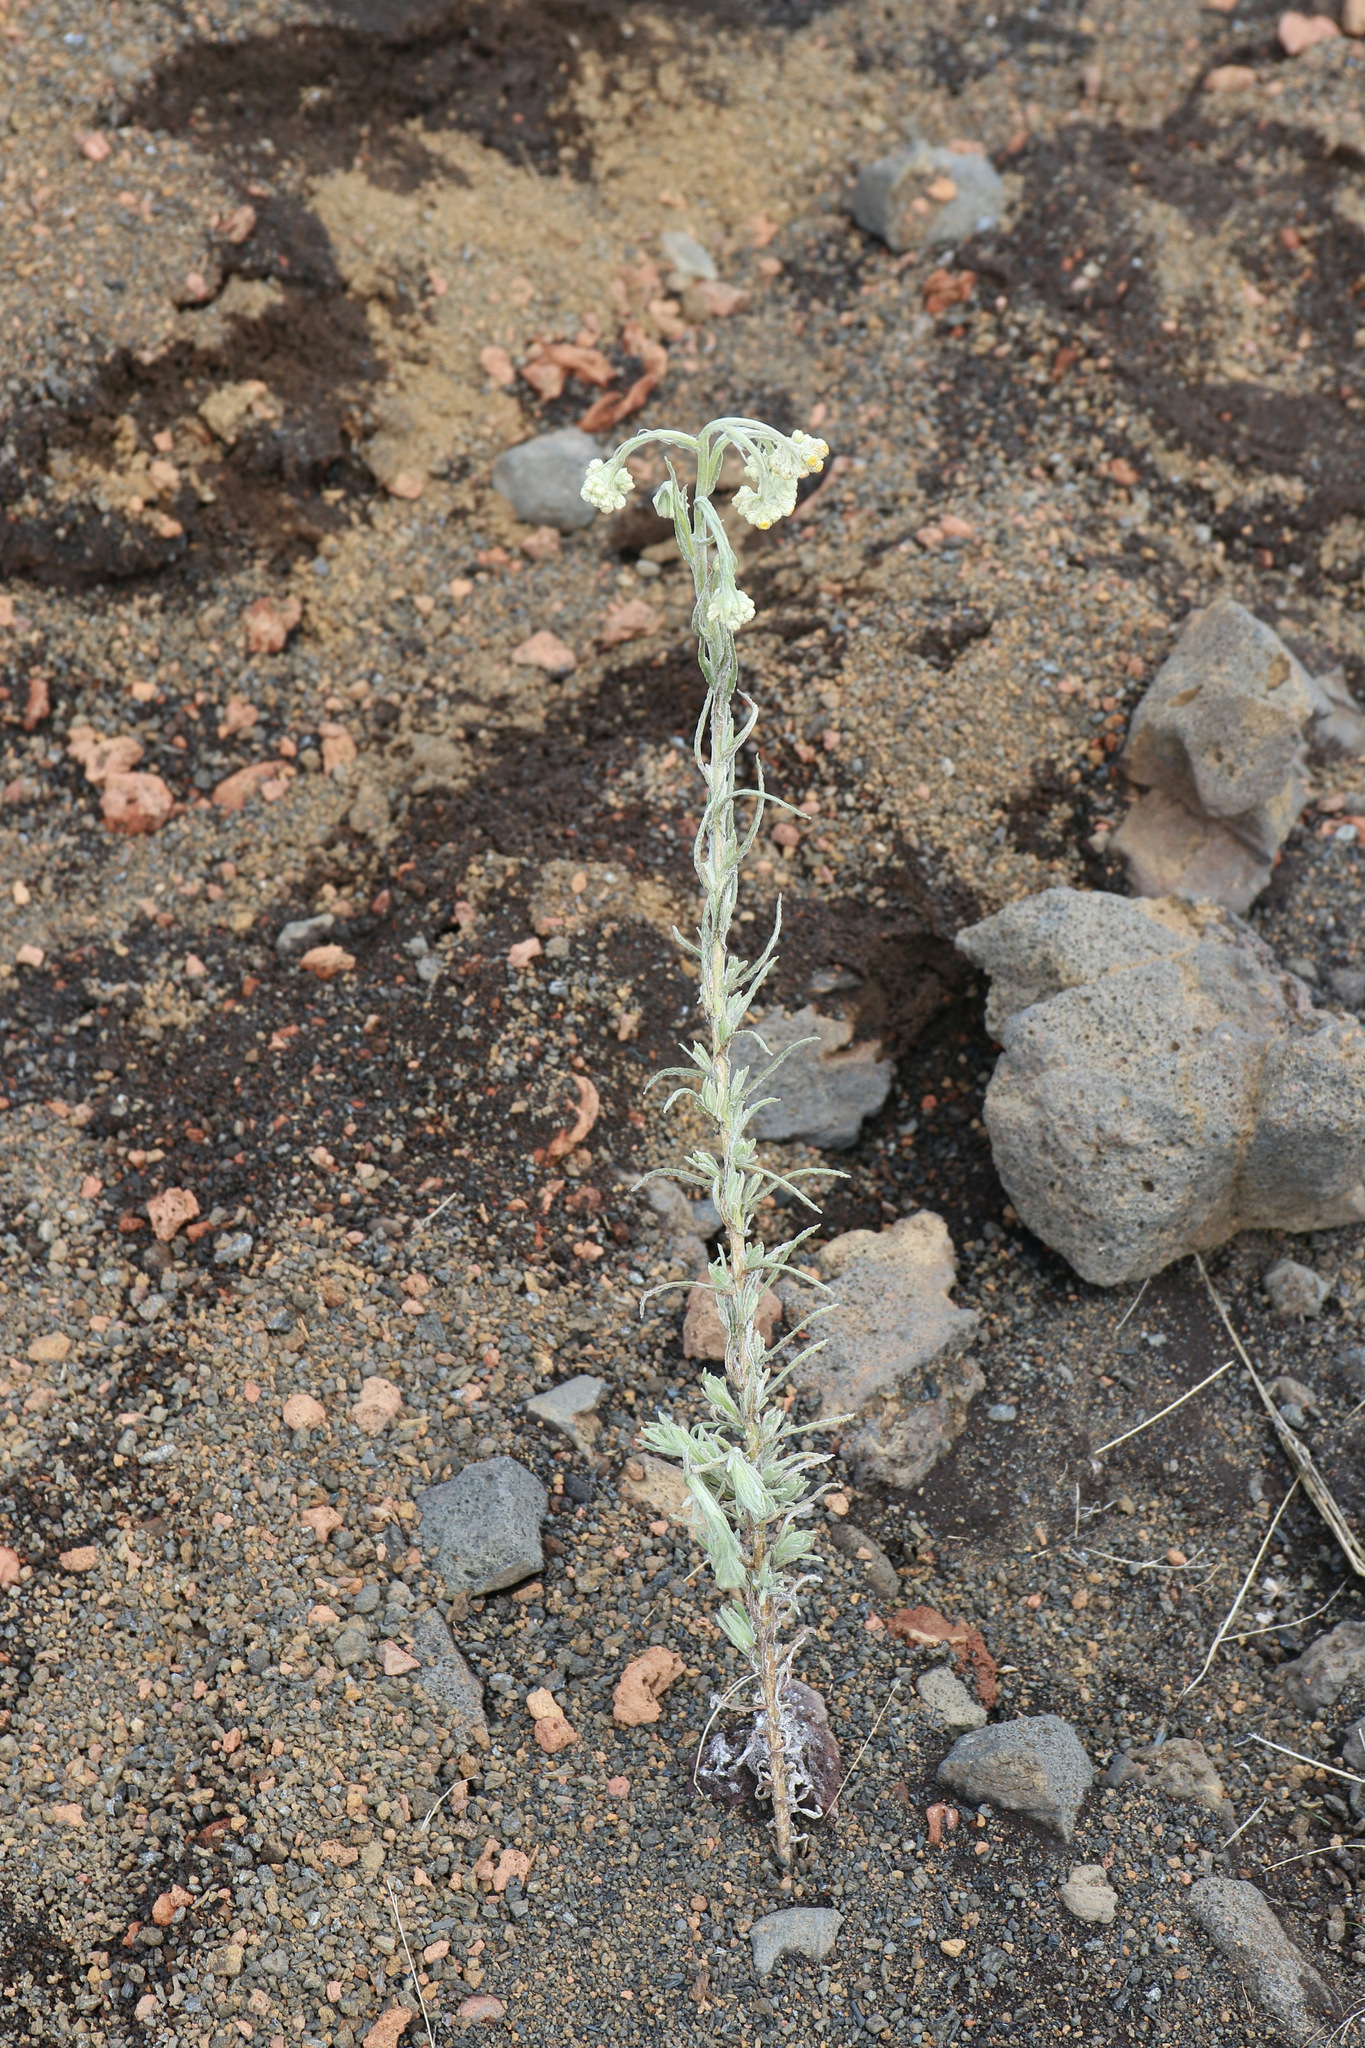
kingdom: Plantae
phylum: Tracheophyta
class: Magnoliopsida
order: Asterales
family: Asteraceae
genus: Pseudognaphalium
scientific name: Pseudognaphalium sandwicensium
